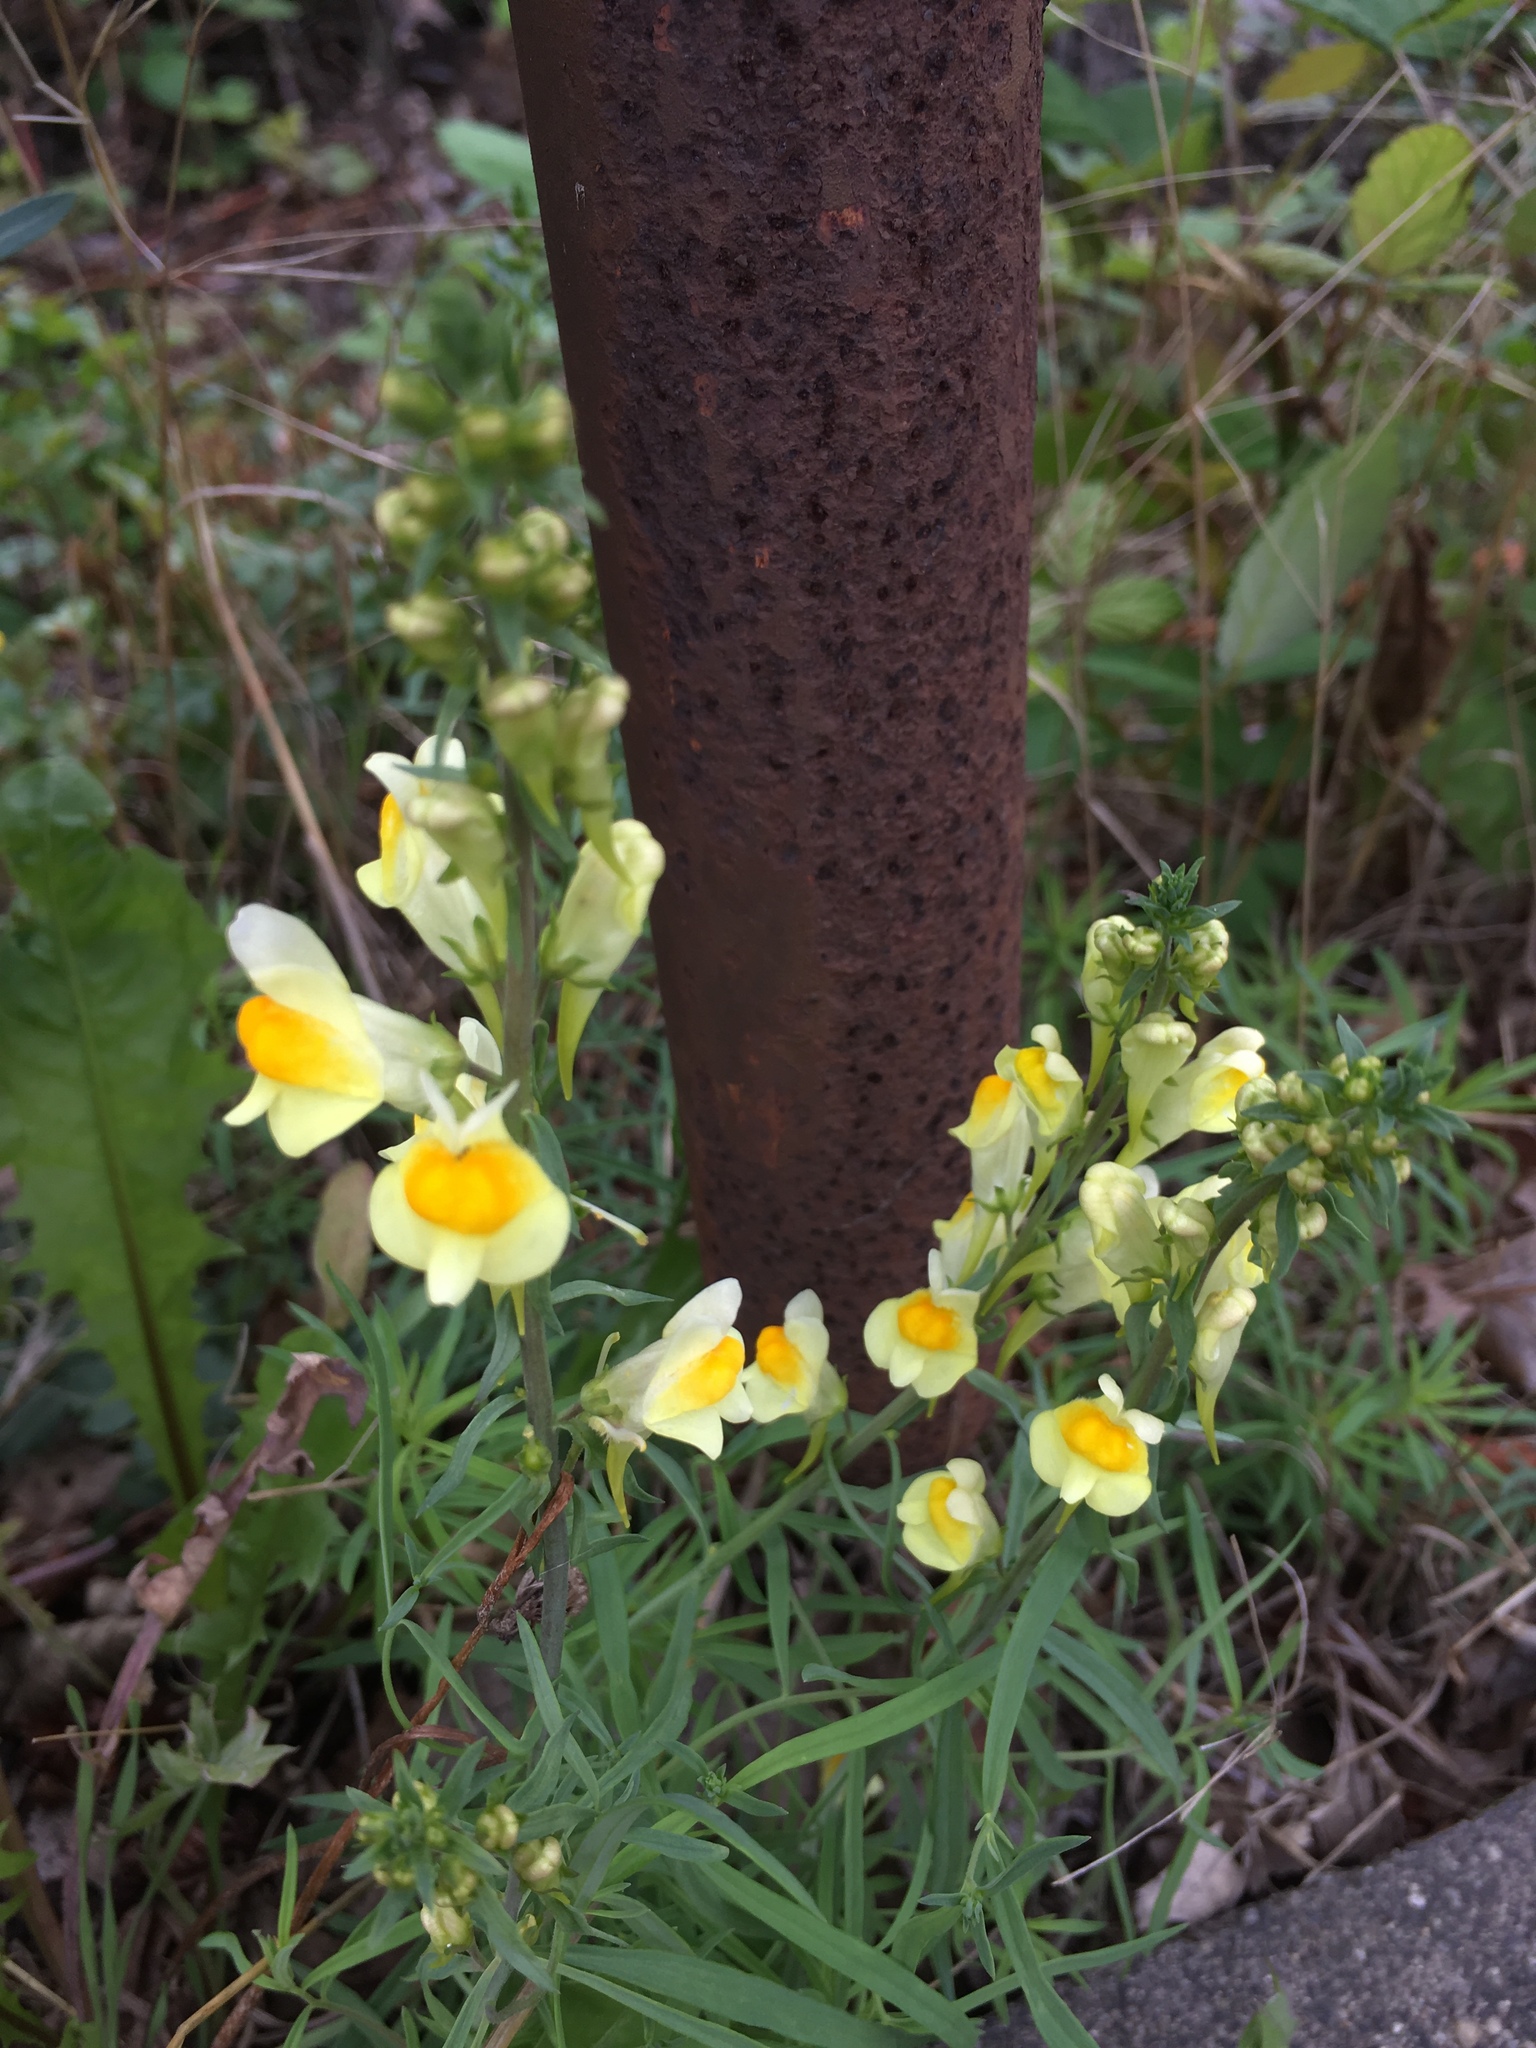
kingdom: Plantae
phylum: Tracheophyta
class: Magnoliopsida
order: Lamiales
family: Plantaginaceae
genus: Linaria
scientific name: Linaria vulgaris
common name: Butter and eggs
